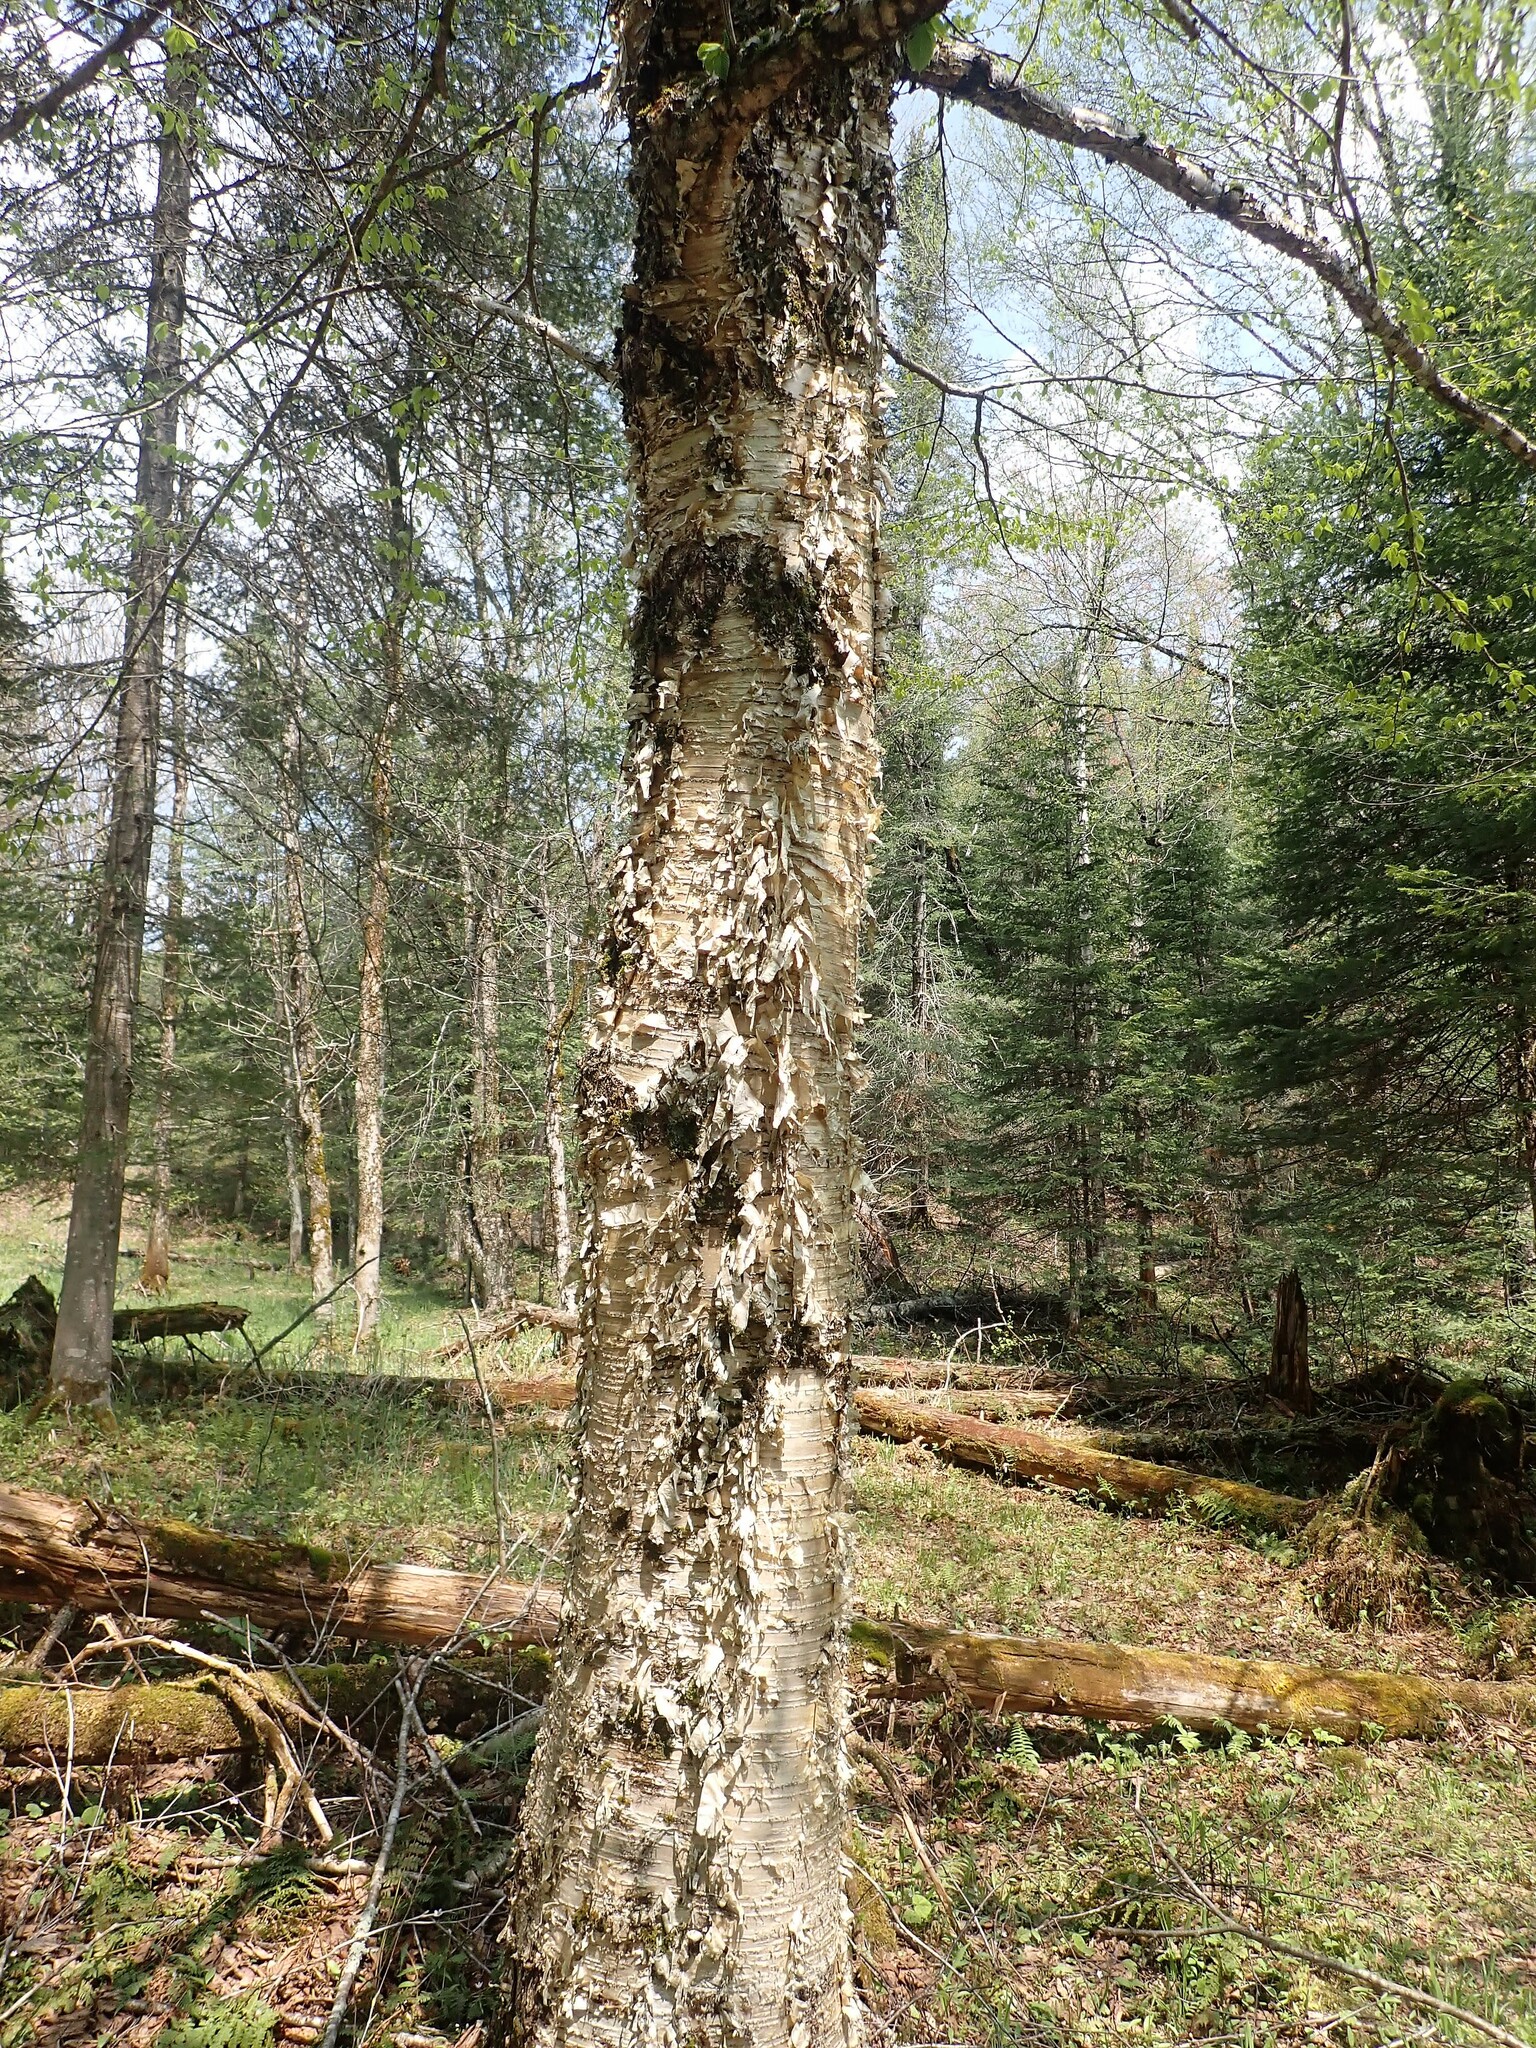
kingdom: Plantae
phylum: Tracheophyta
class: Magnoliopsida
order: Fagales
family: Betulaceae
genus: Betula
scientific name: Betula alleghaniensis
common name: Yellow birch
